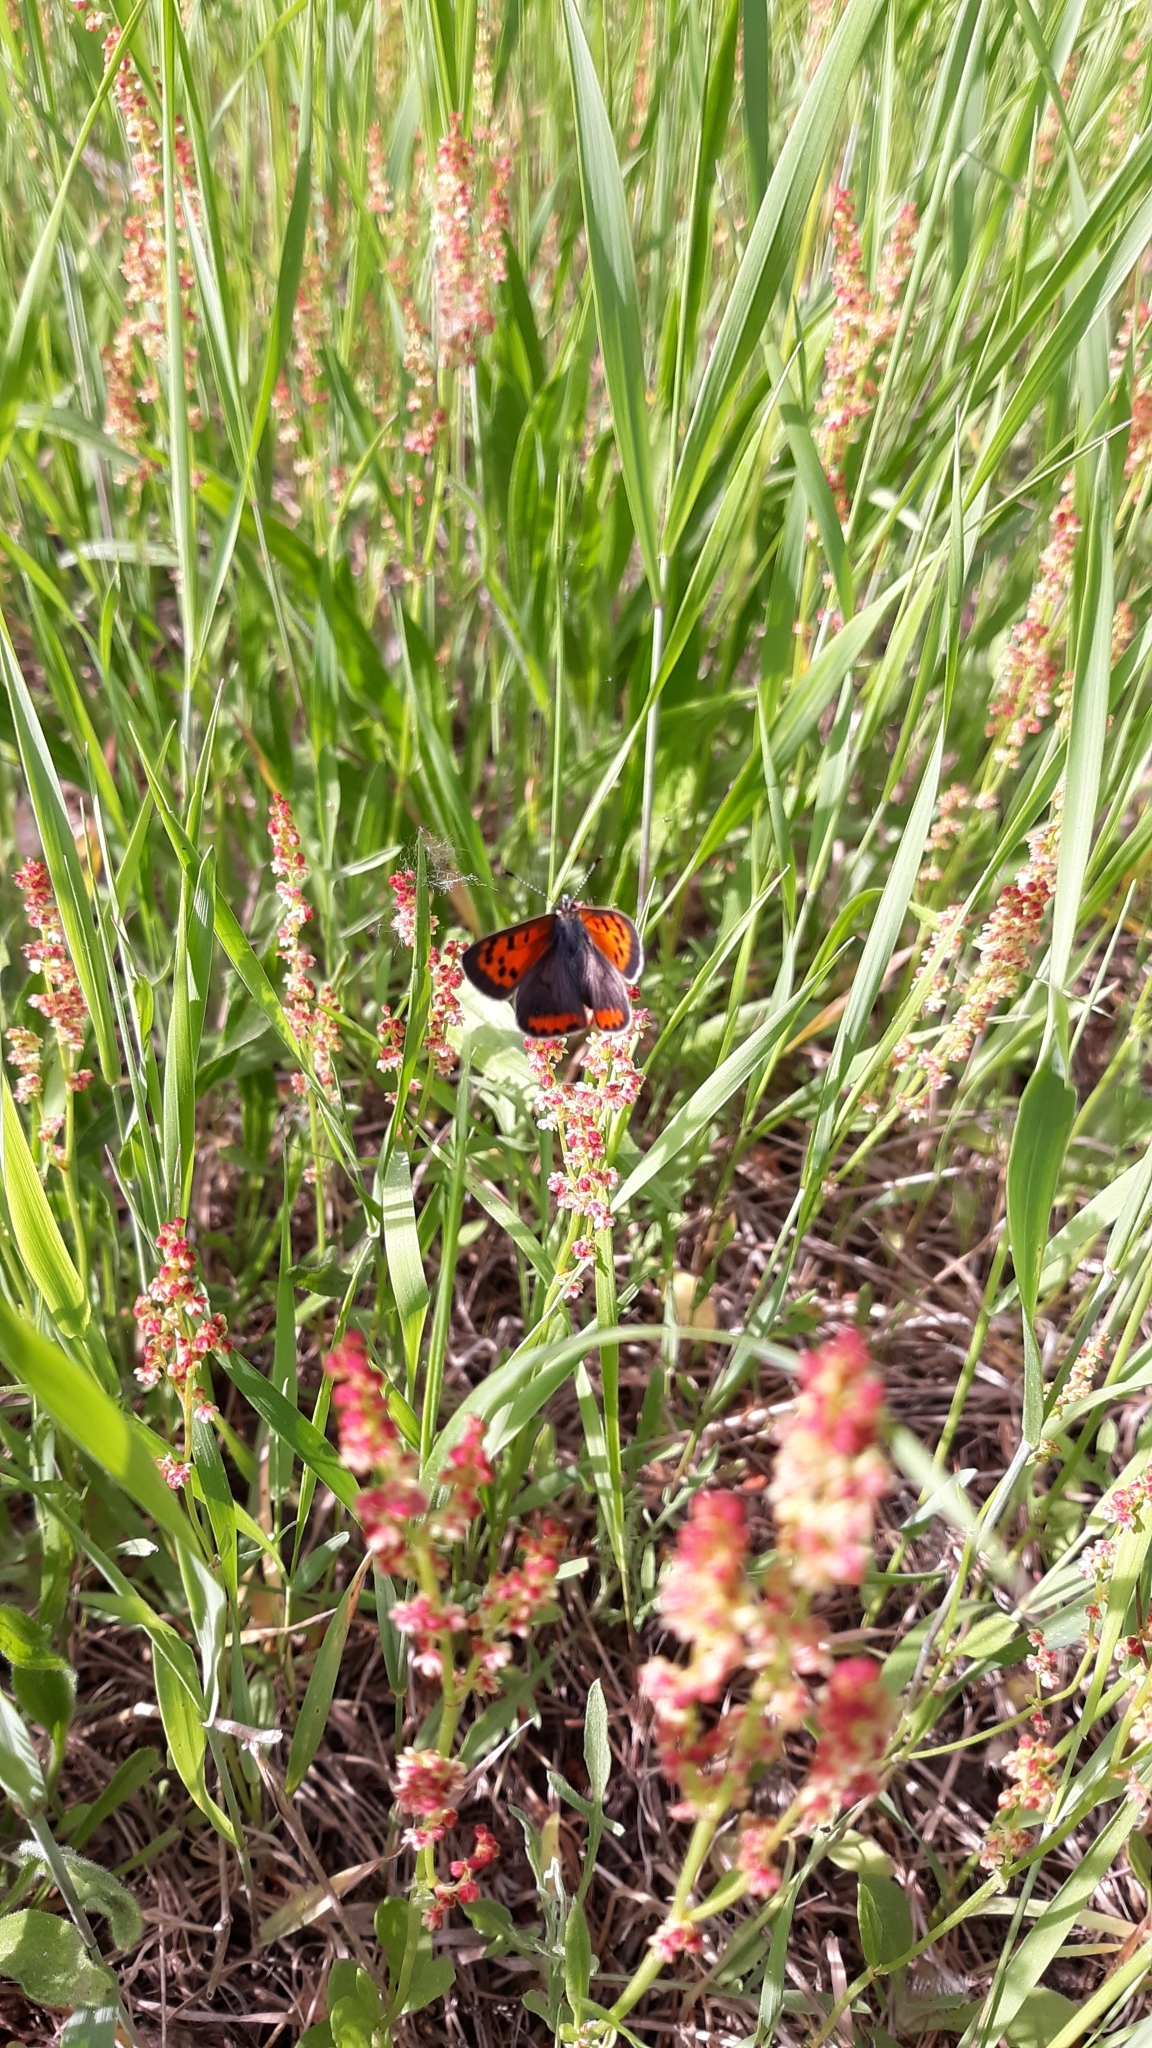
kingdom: Animalia
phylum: Arthropoda
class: Insecta
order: Lepidoptera
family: Lycaenidae
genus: Lycaena
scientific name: Lycaena hypophlaeas
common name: American copper
